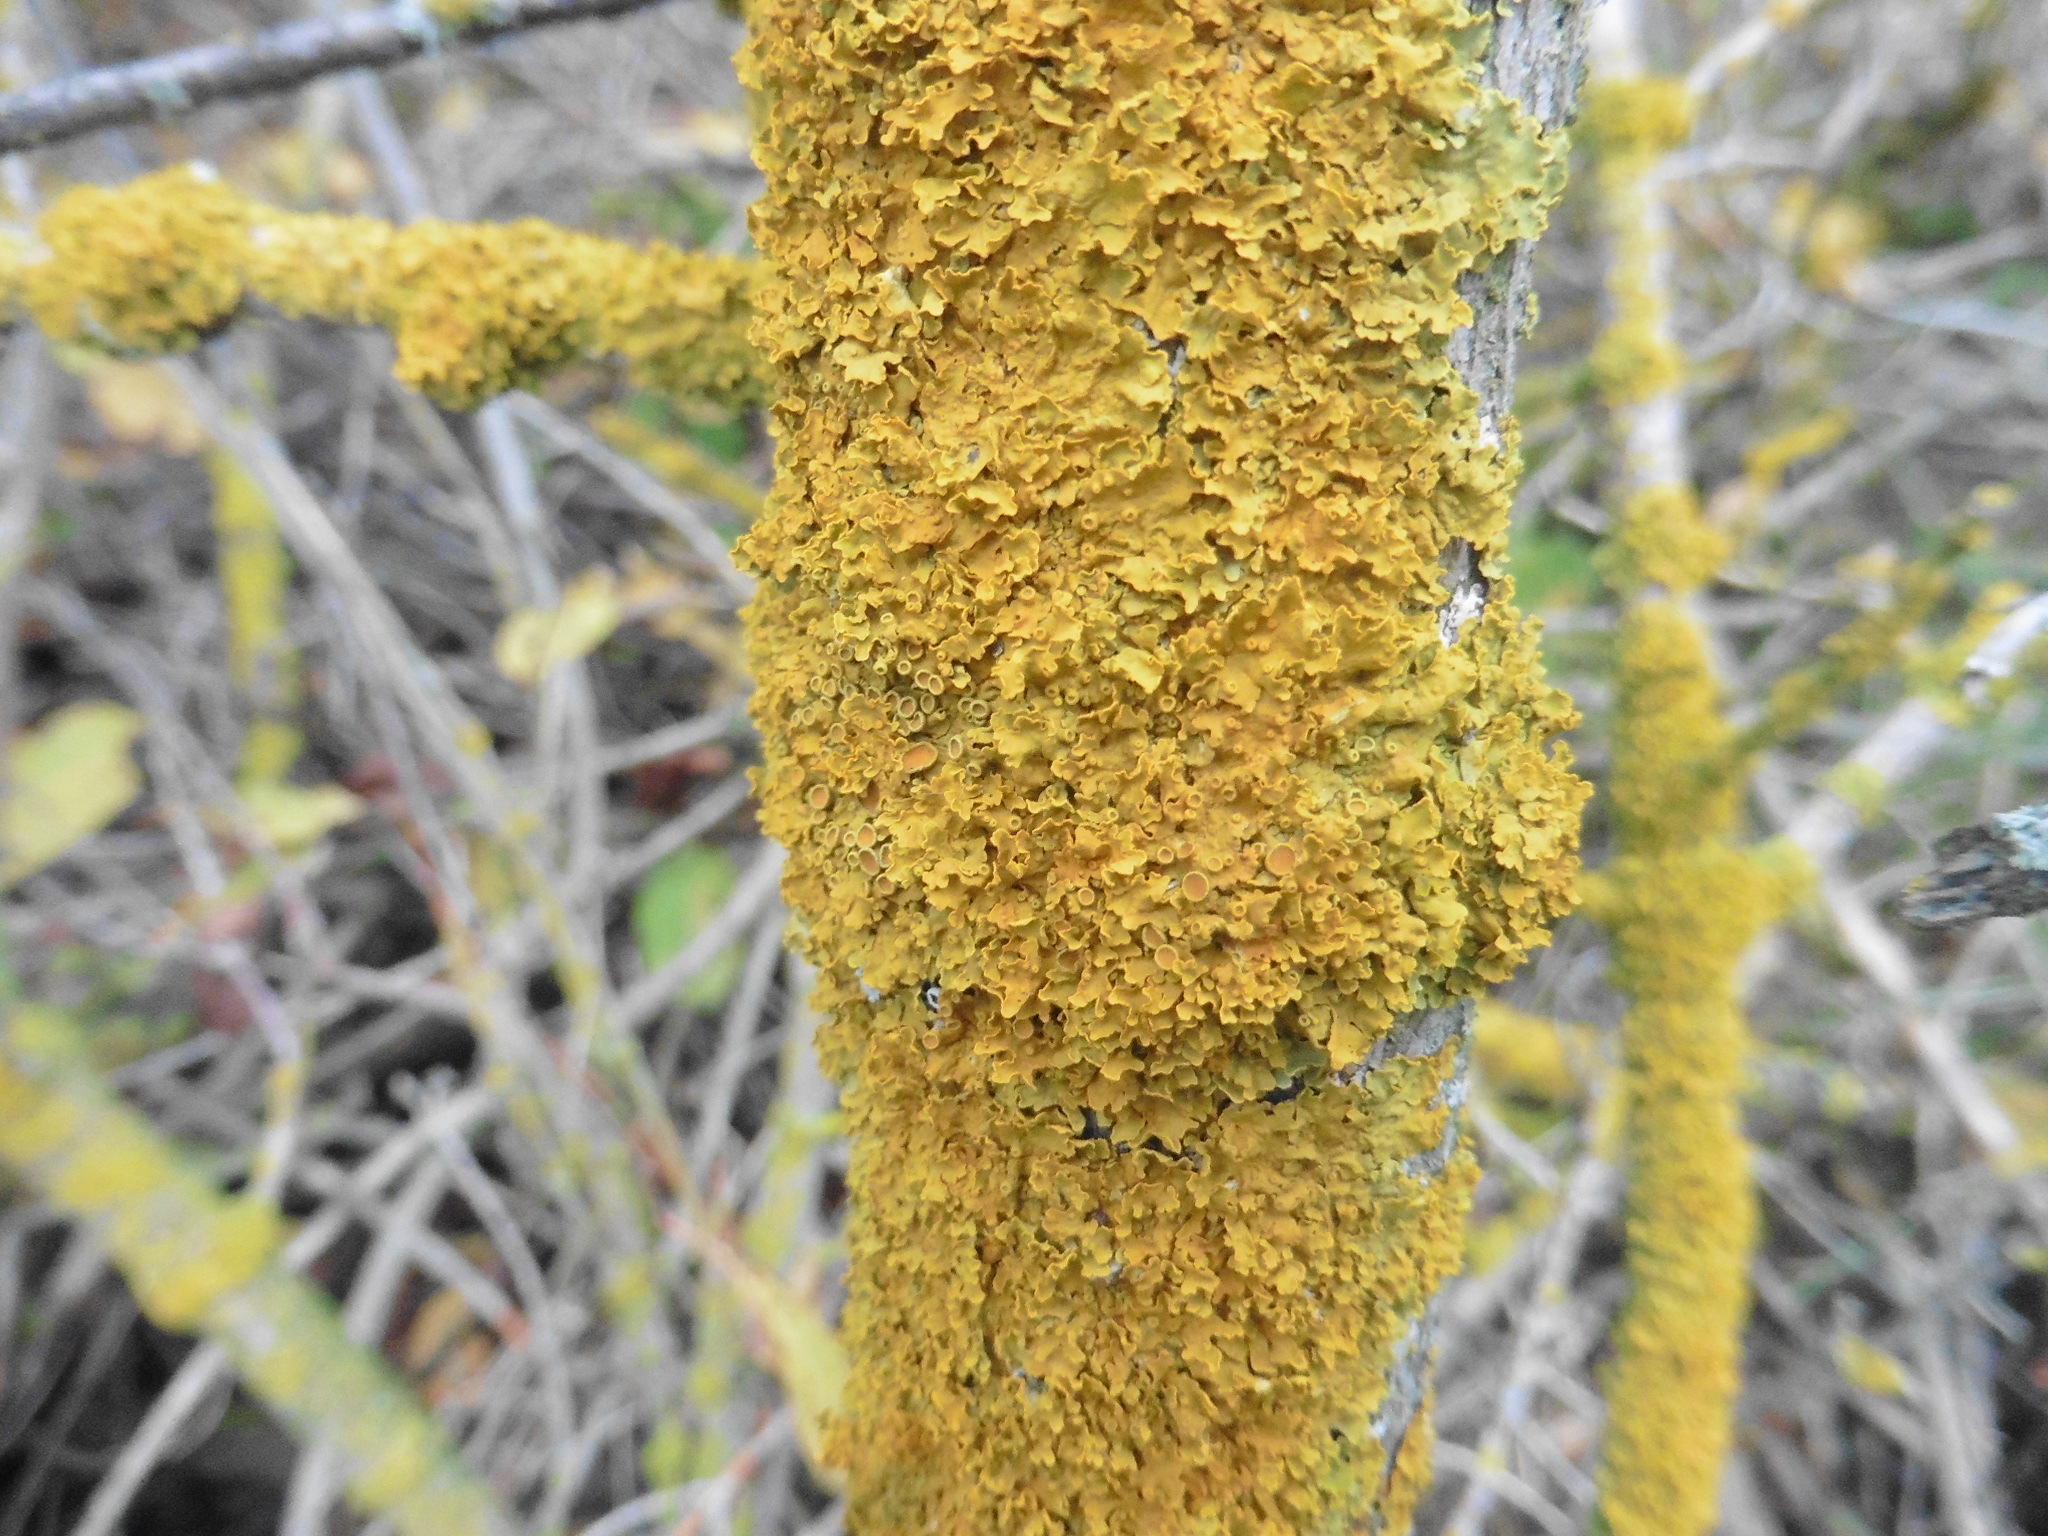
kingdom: Fungi
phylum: Ascomycota
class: Lecanoromycetes
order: Teloschistales
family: Teloschistaceae
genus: Xanthoria
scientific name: Xanthoria parietina
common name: Common orange lichen
